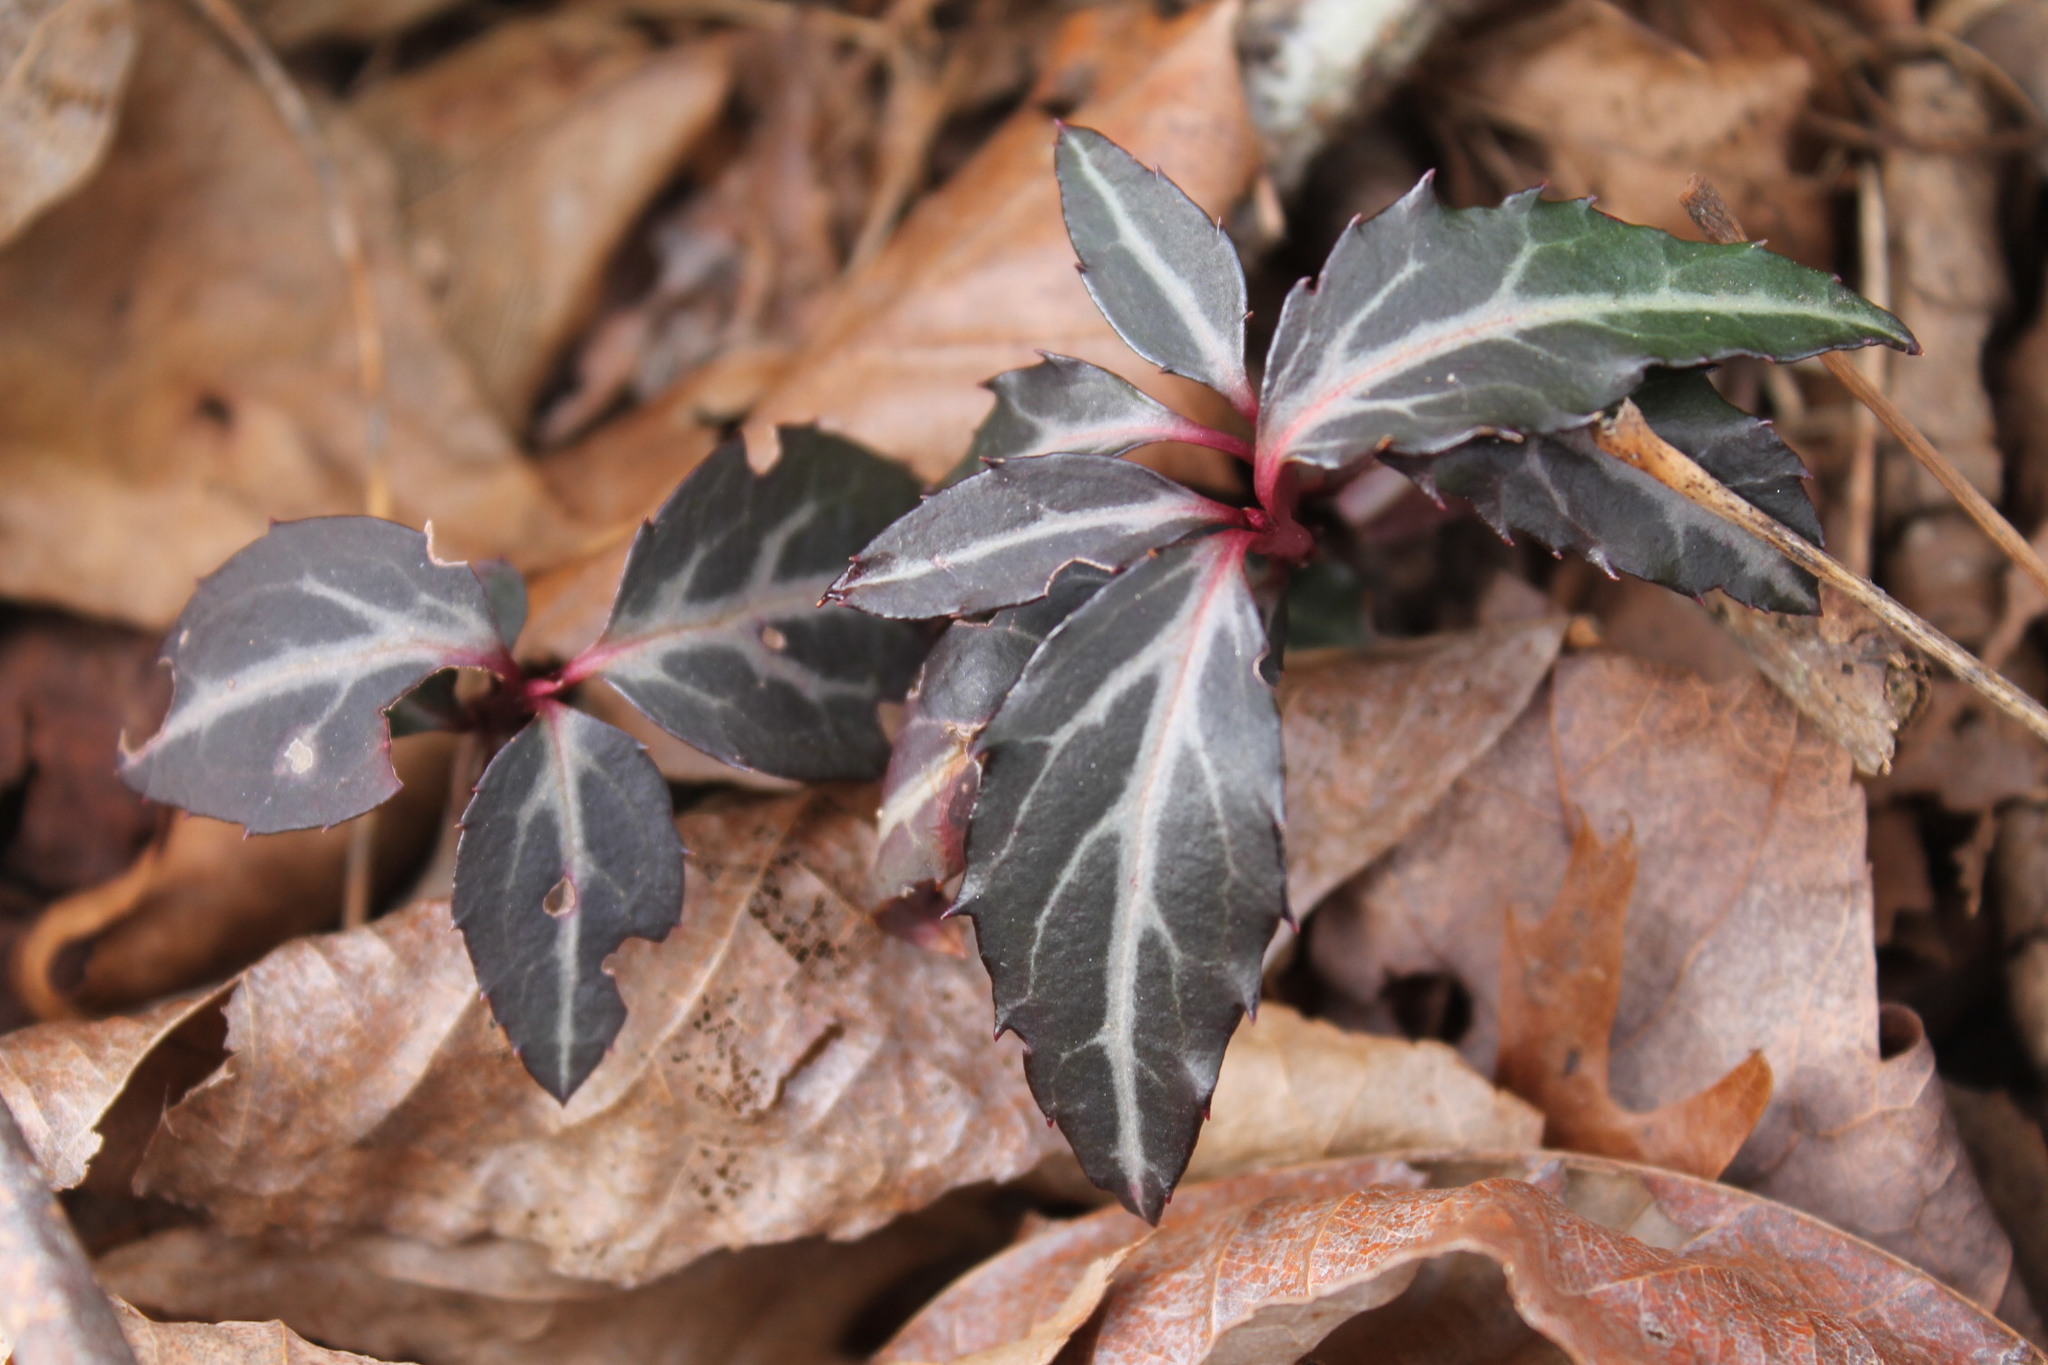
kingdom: Plantae
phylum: Tracheophyta
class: Magnoliopsida
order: Ericales
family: Ericaceae
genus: Chimaphila
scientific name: Chimaphila maculata
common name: Spotted pipsissewa
